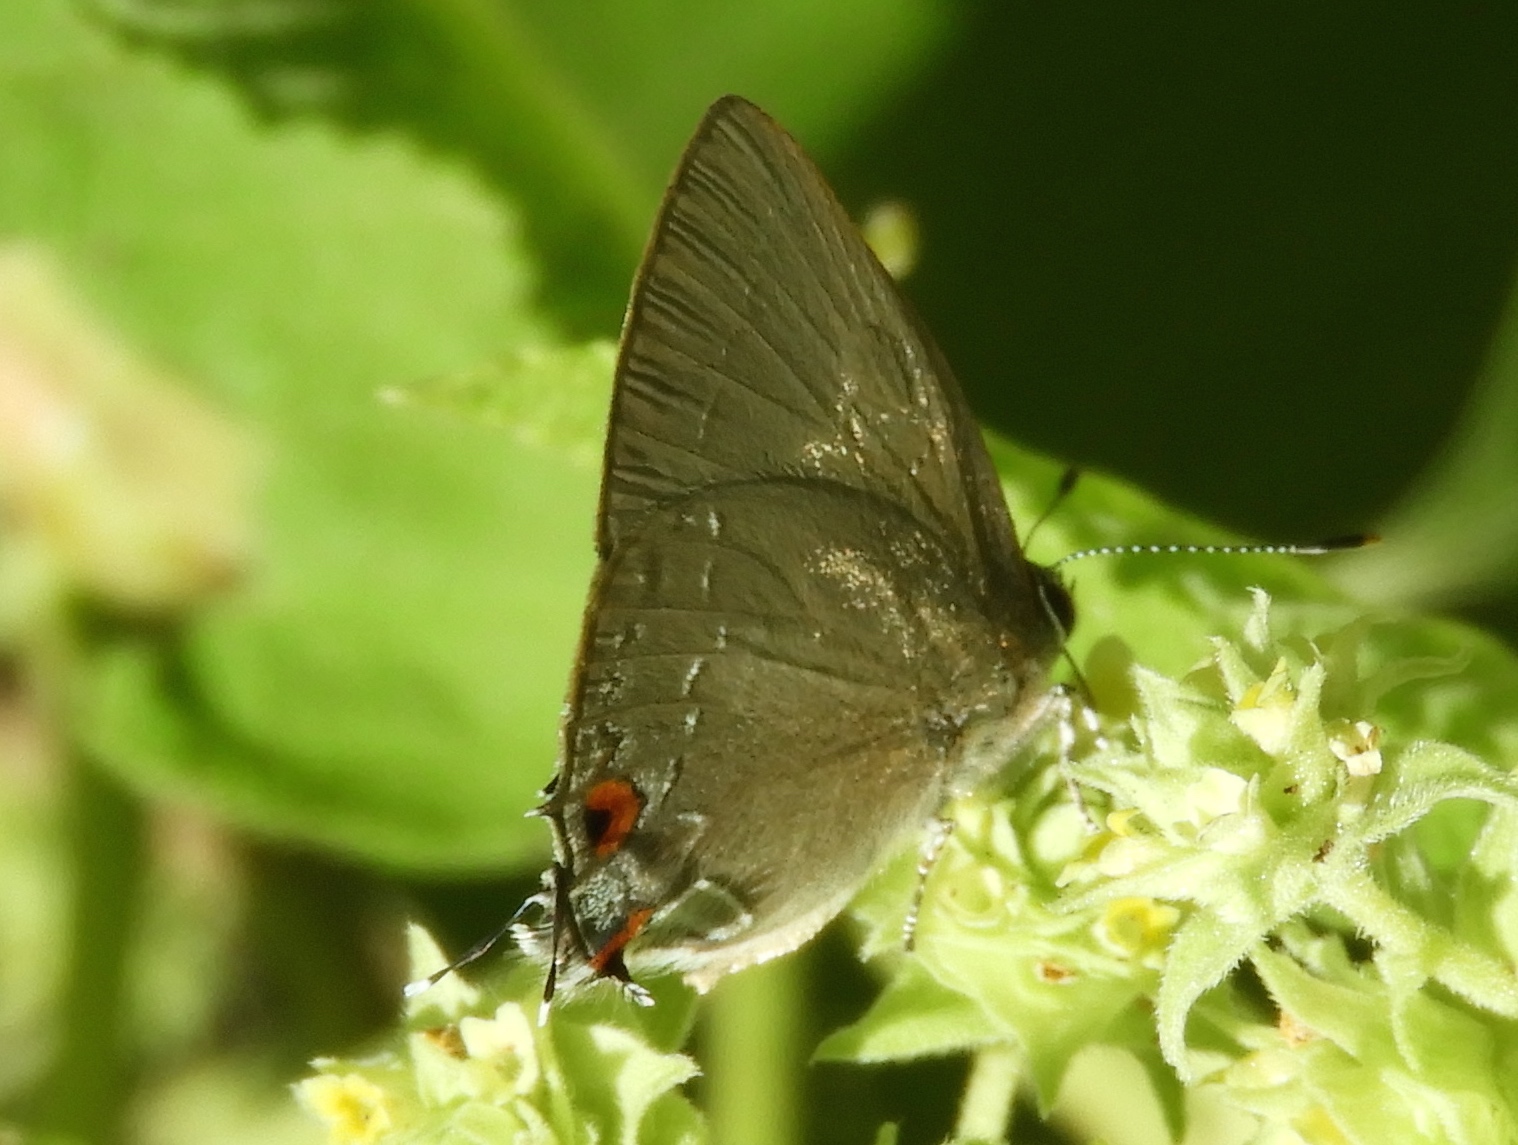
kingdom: Animalia
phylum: Arthropoda
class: Insecta
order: Lepidoptera
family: Lycaenidae
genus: Gargina
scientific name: Gargina thoria
